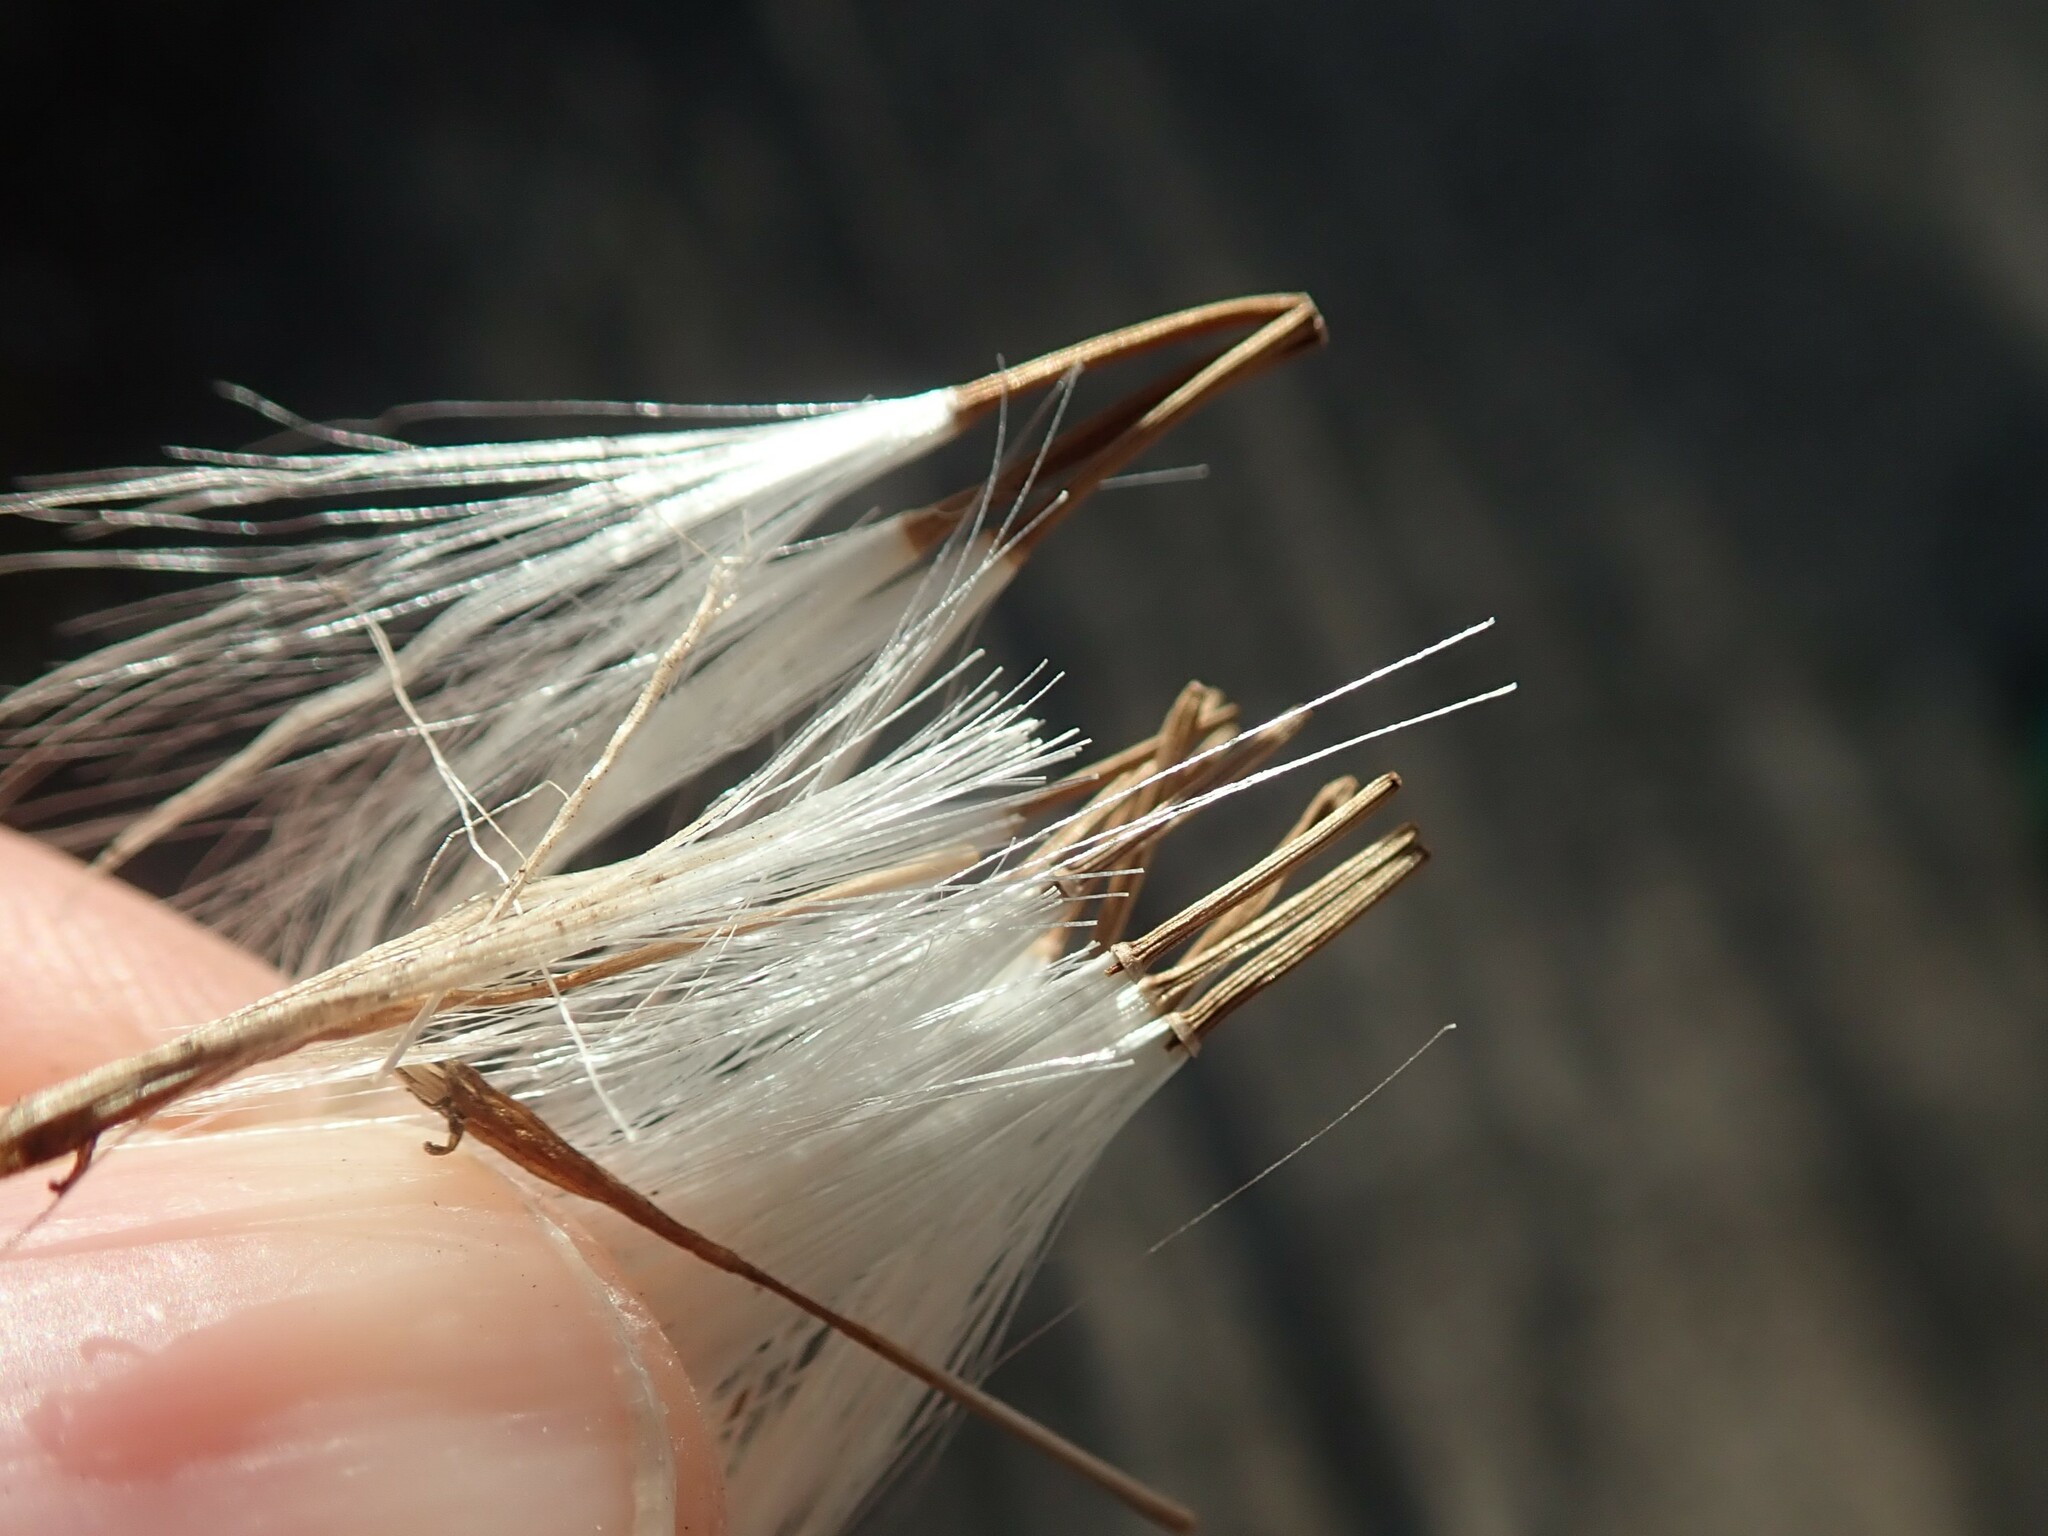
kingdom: Plantae
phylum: Tracheophyta
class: Magnoliopsida
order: Asterales
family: Asteraceae
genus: Kleinia
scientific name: Kleinia neriifolia
